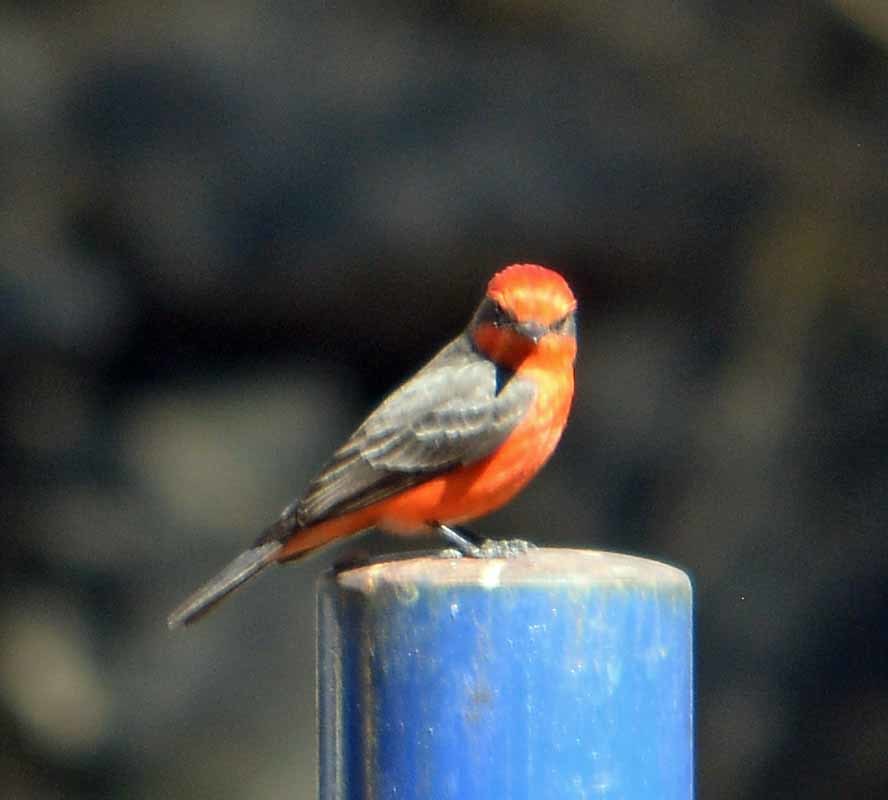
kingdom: Animalia
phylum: Chordata
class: Aves
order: Passeriformes
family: Tyrannidae
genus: Pyrocephalus
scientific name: Pyrocephalus rubinus
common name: Vermilion flycatcher
